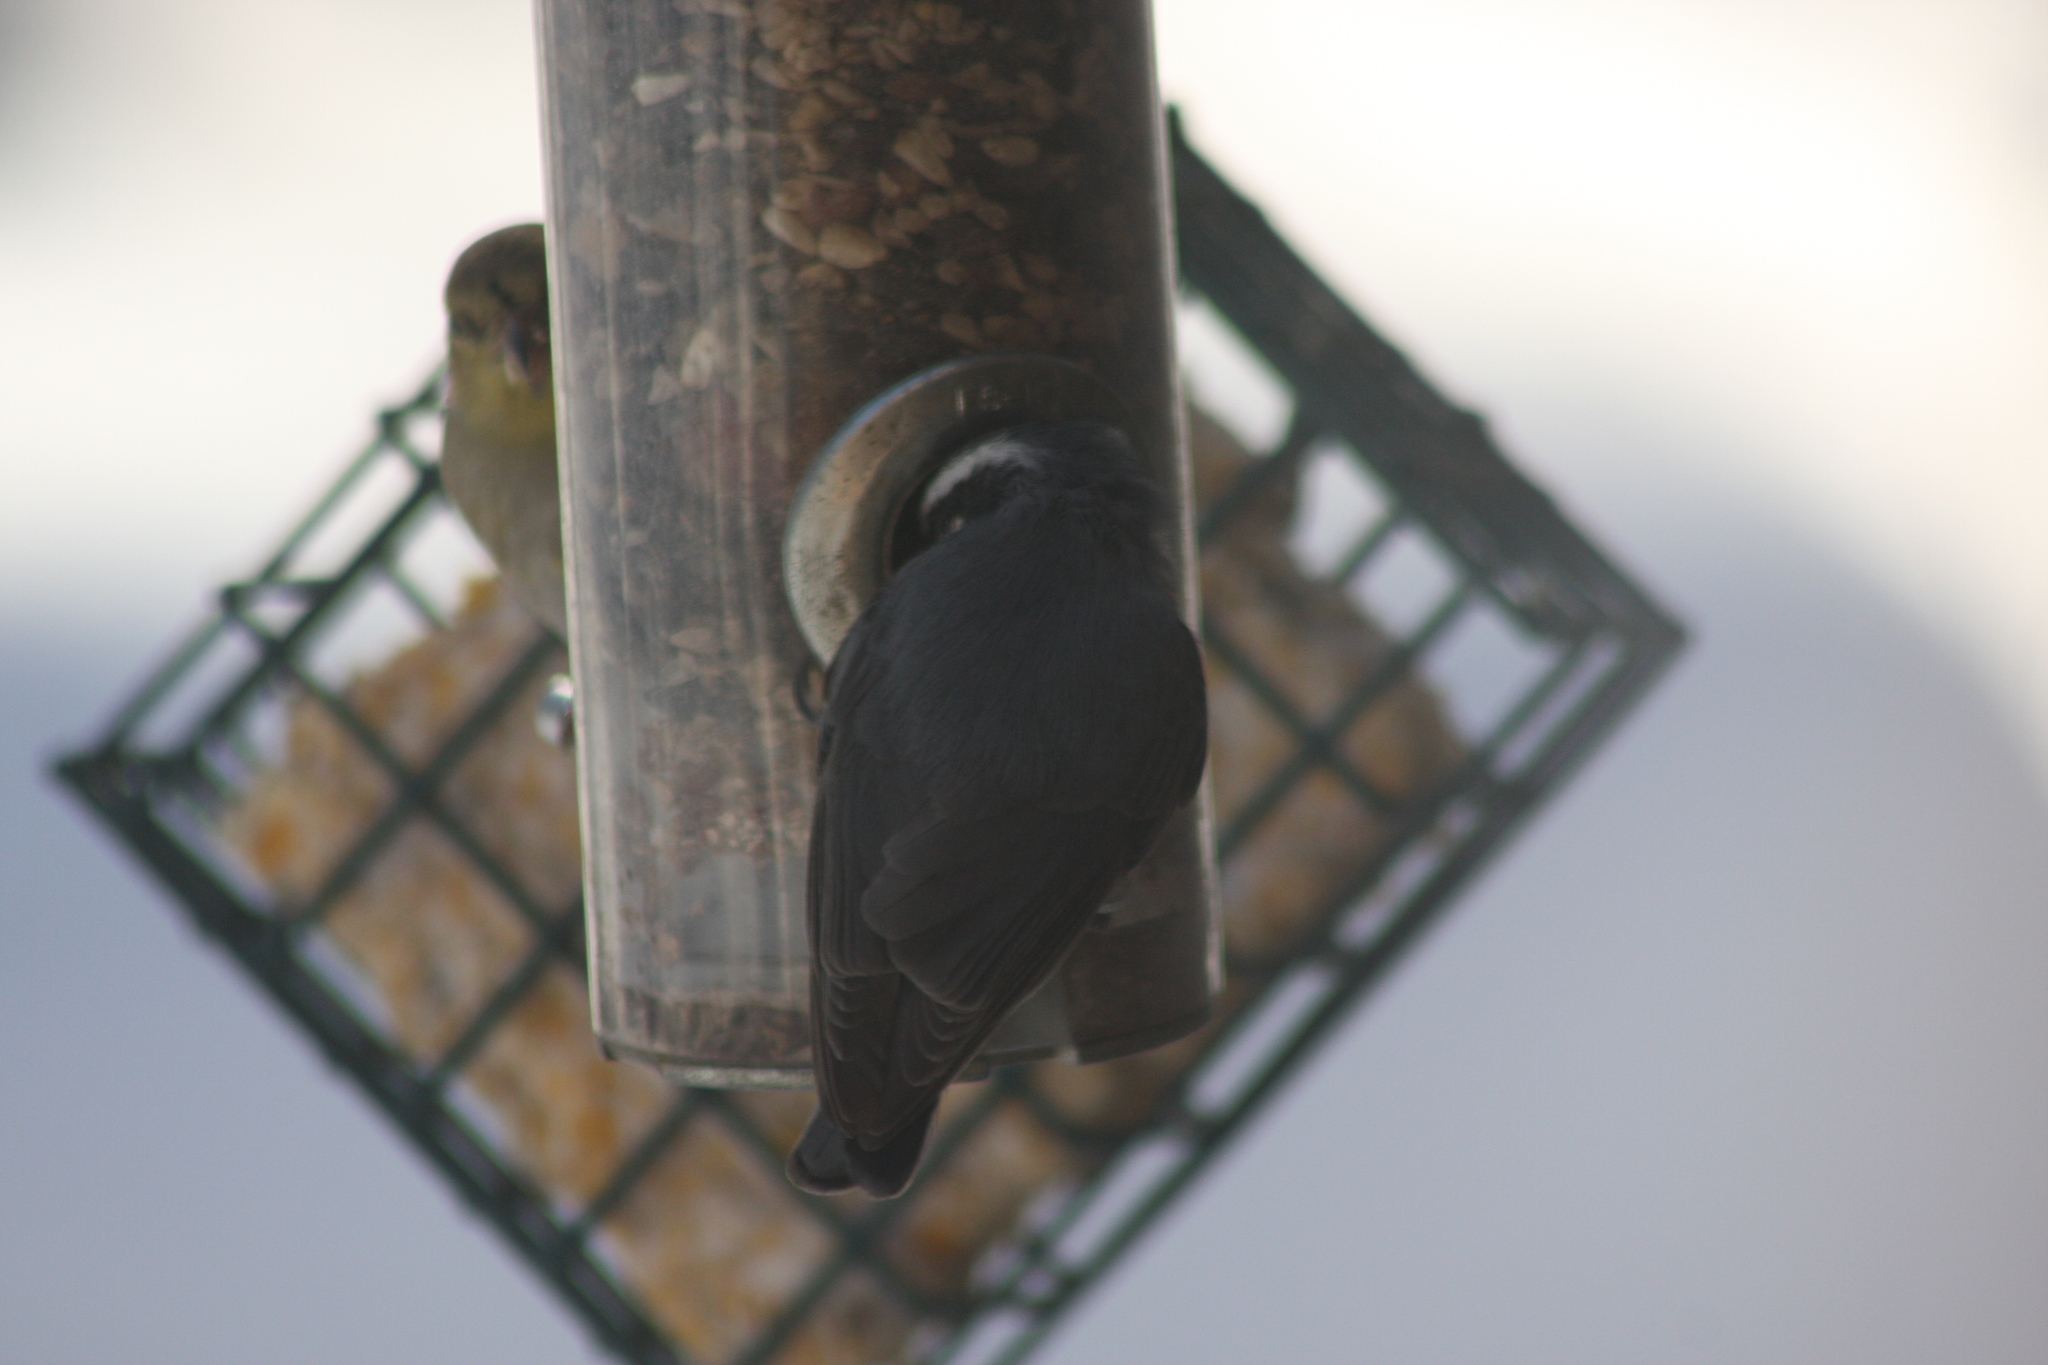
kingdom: Animalia
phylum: Chordata
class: Aves
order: Passeriformes
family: Sittidae
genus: Sitta
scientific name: Sitta canadensis
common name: Red-breasted nuthatch
